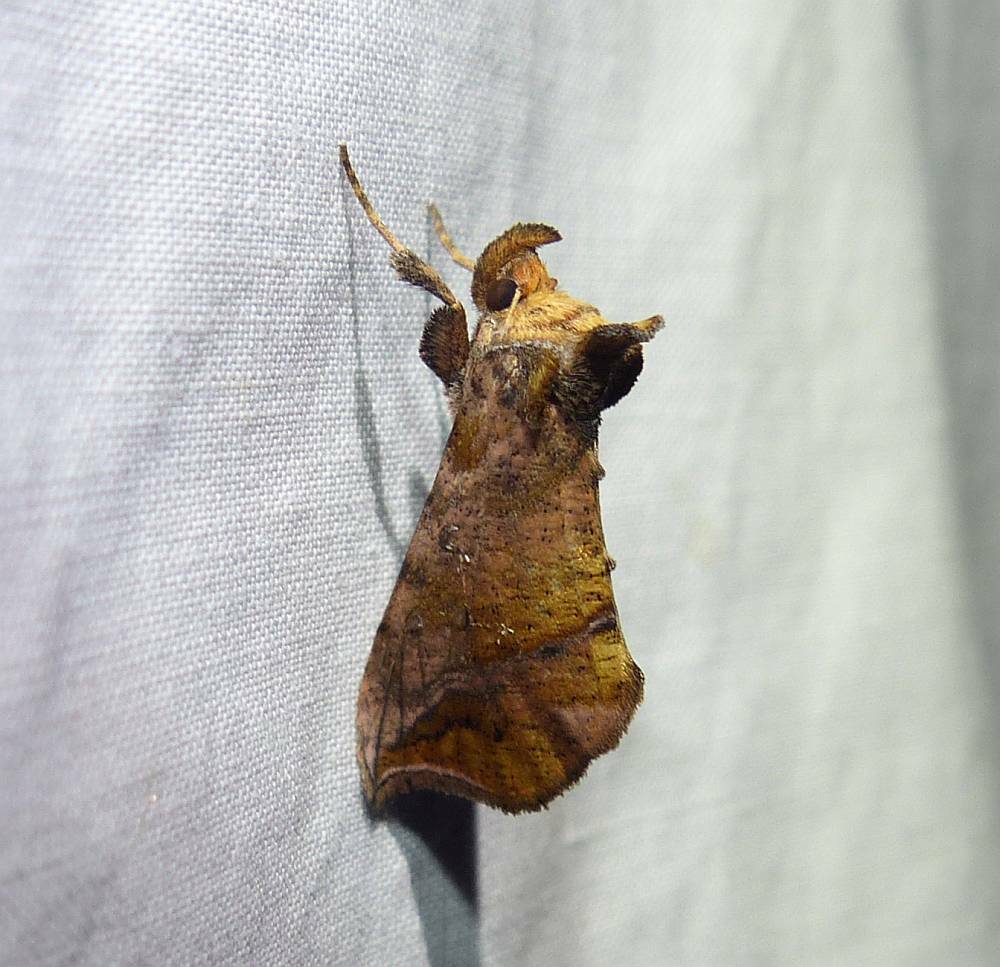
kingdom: Animalia
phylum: Arthropoda
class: Insecta
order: Lepidoptera
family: Noctuidae
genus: Pseudeva
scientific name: Pseudeva purpurigera
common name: Straight-lined looper moth
